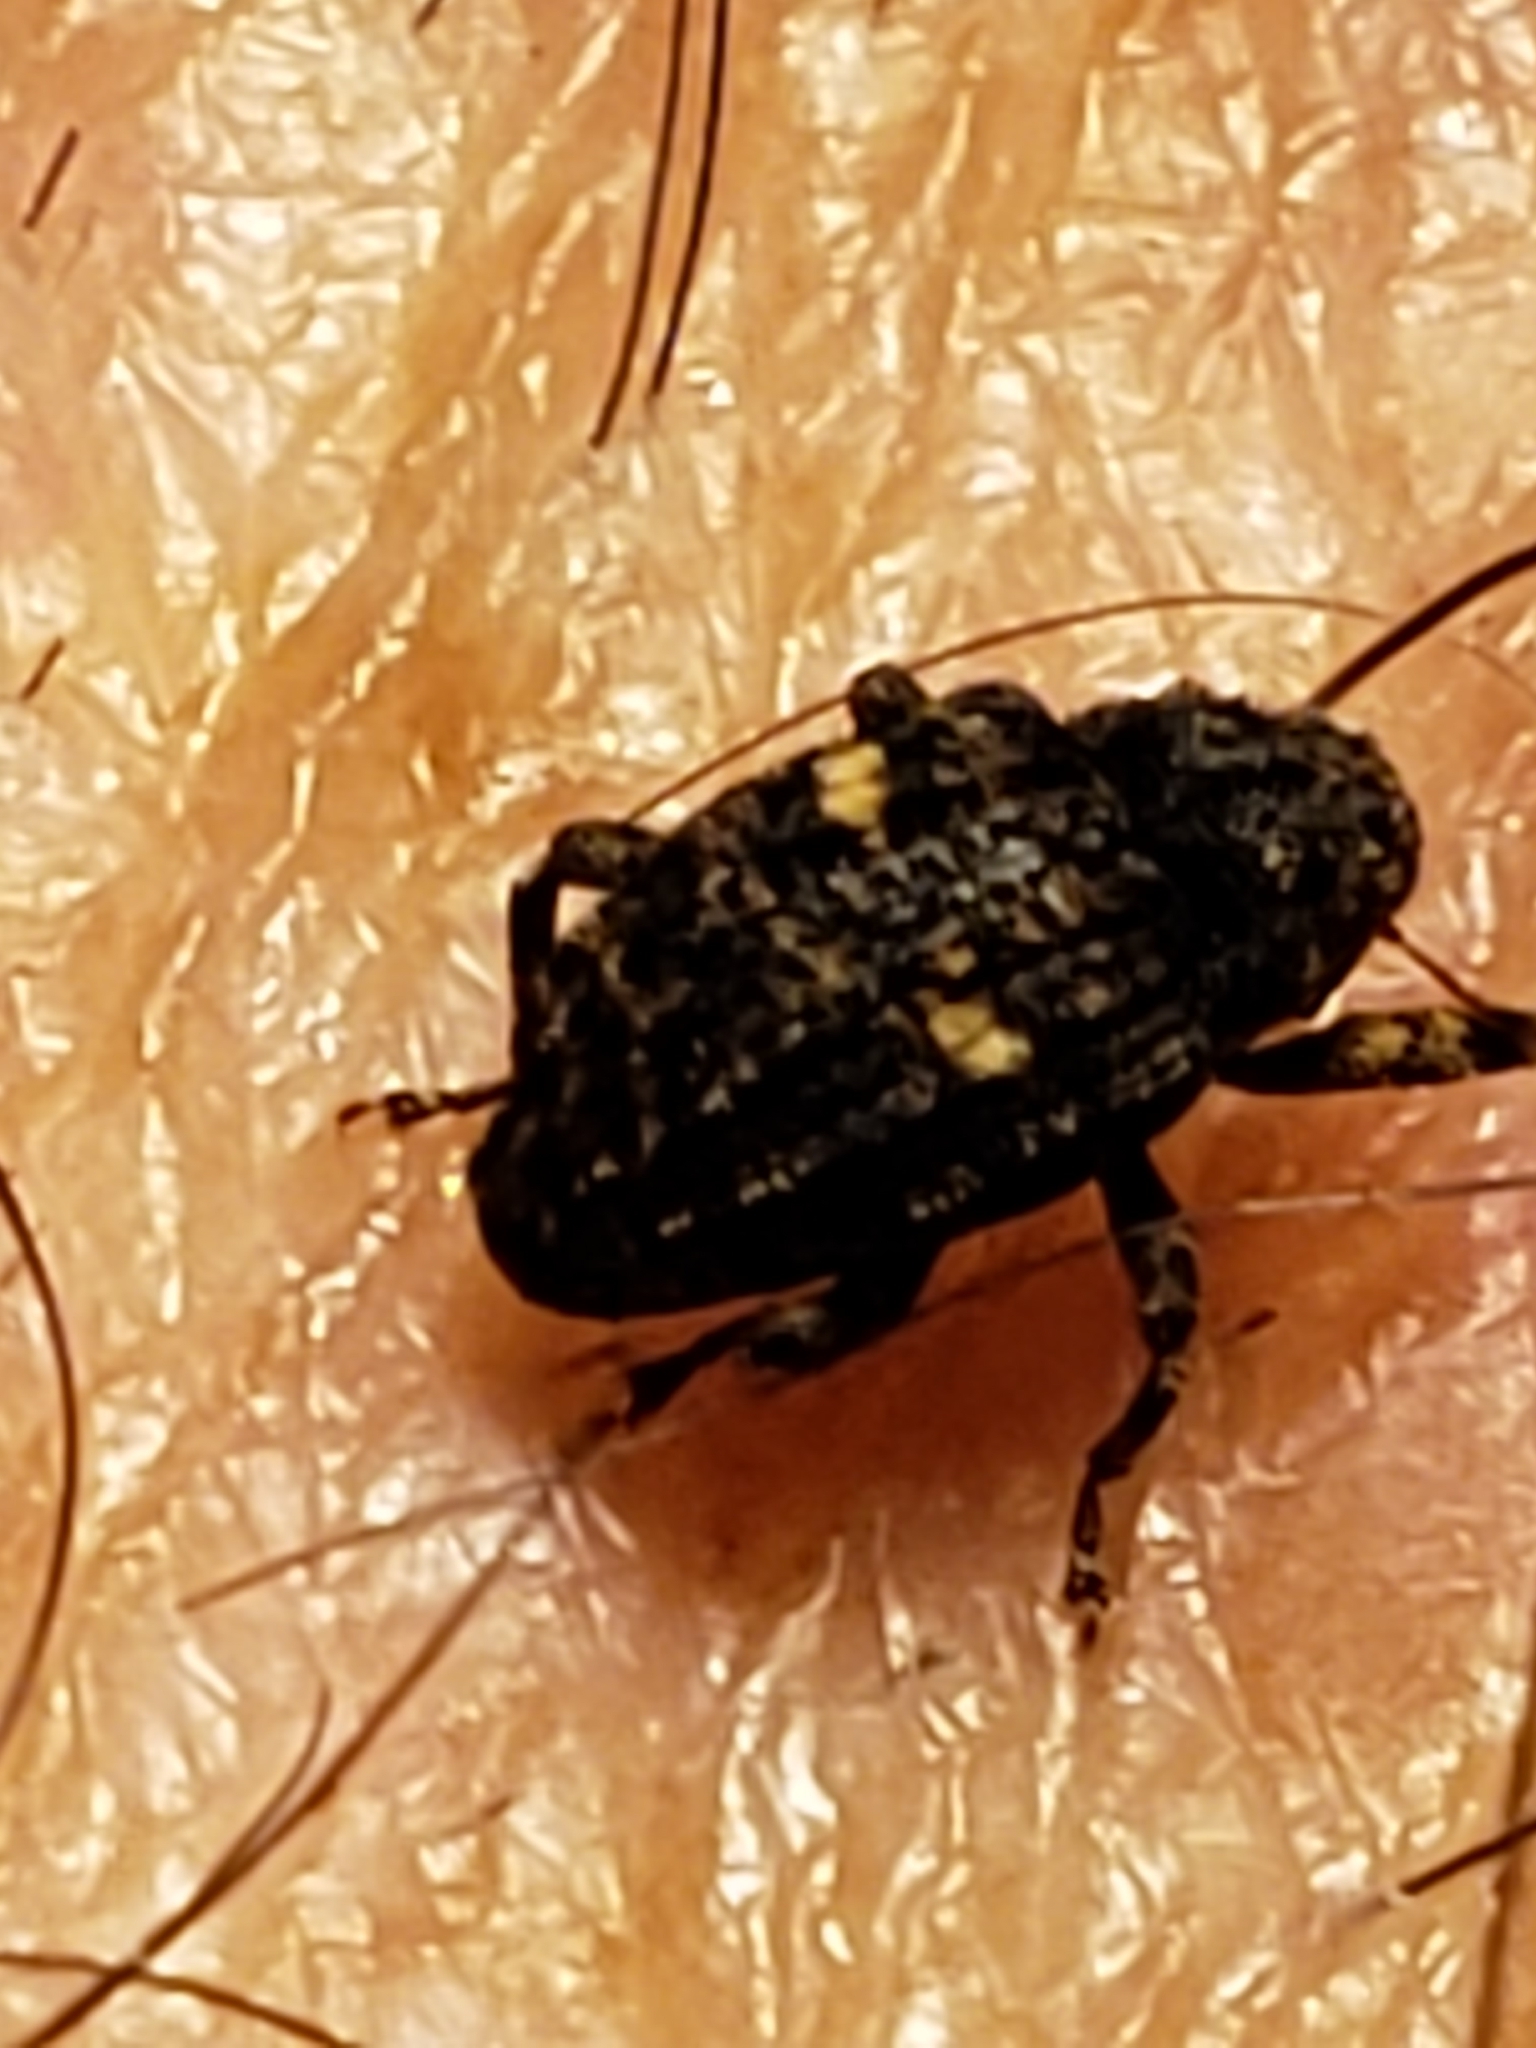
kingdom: Animalia
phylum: Arthropoda
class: Insecta
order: Coleoptera
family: Curculionidae
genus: Eubulus
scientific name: Eubulus bisignatus
